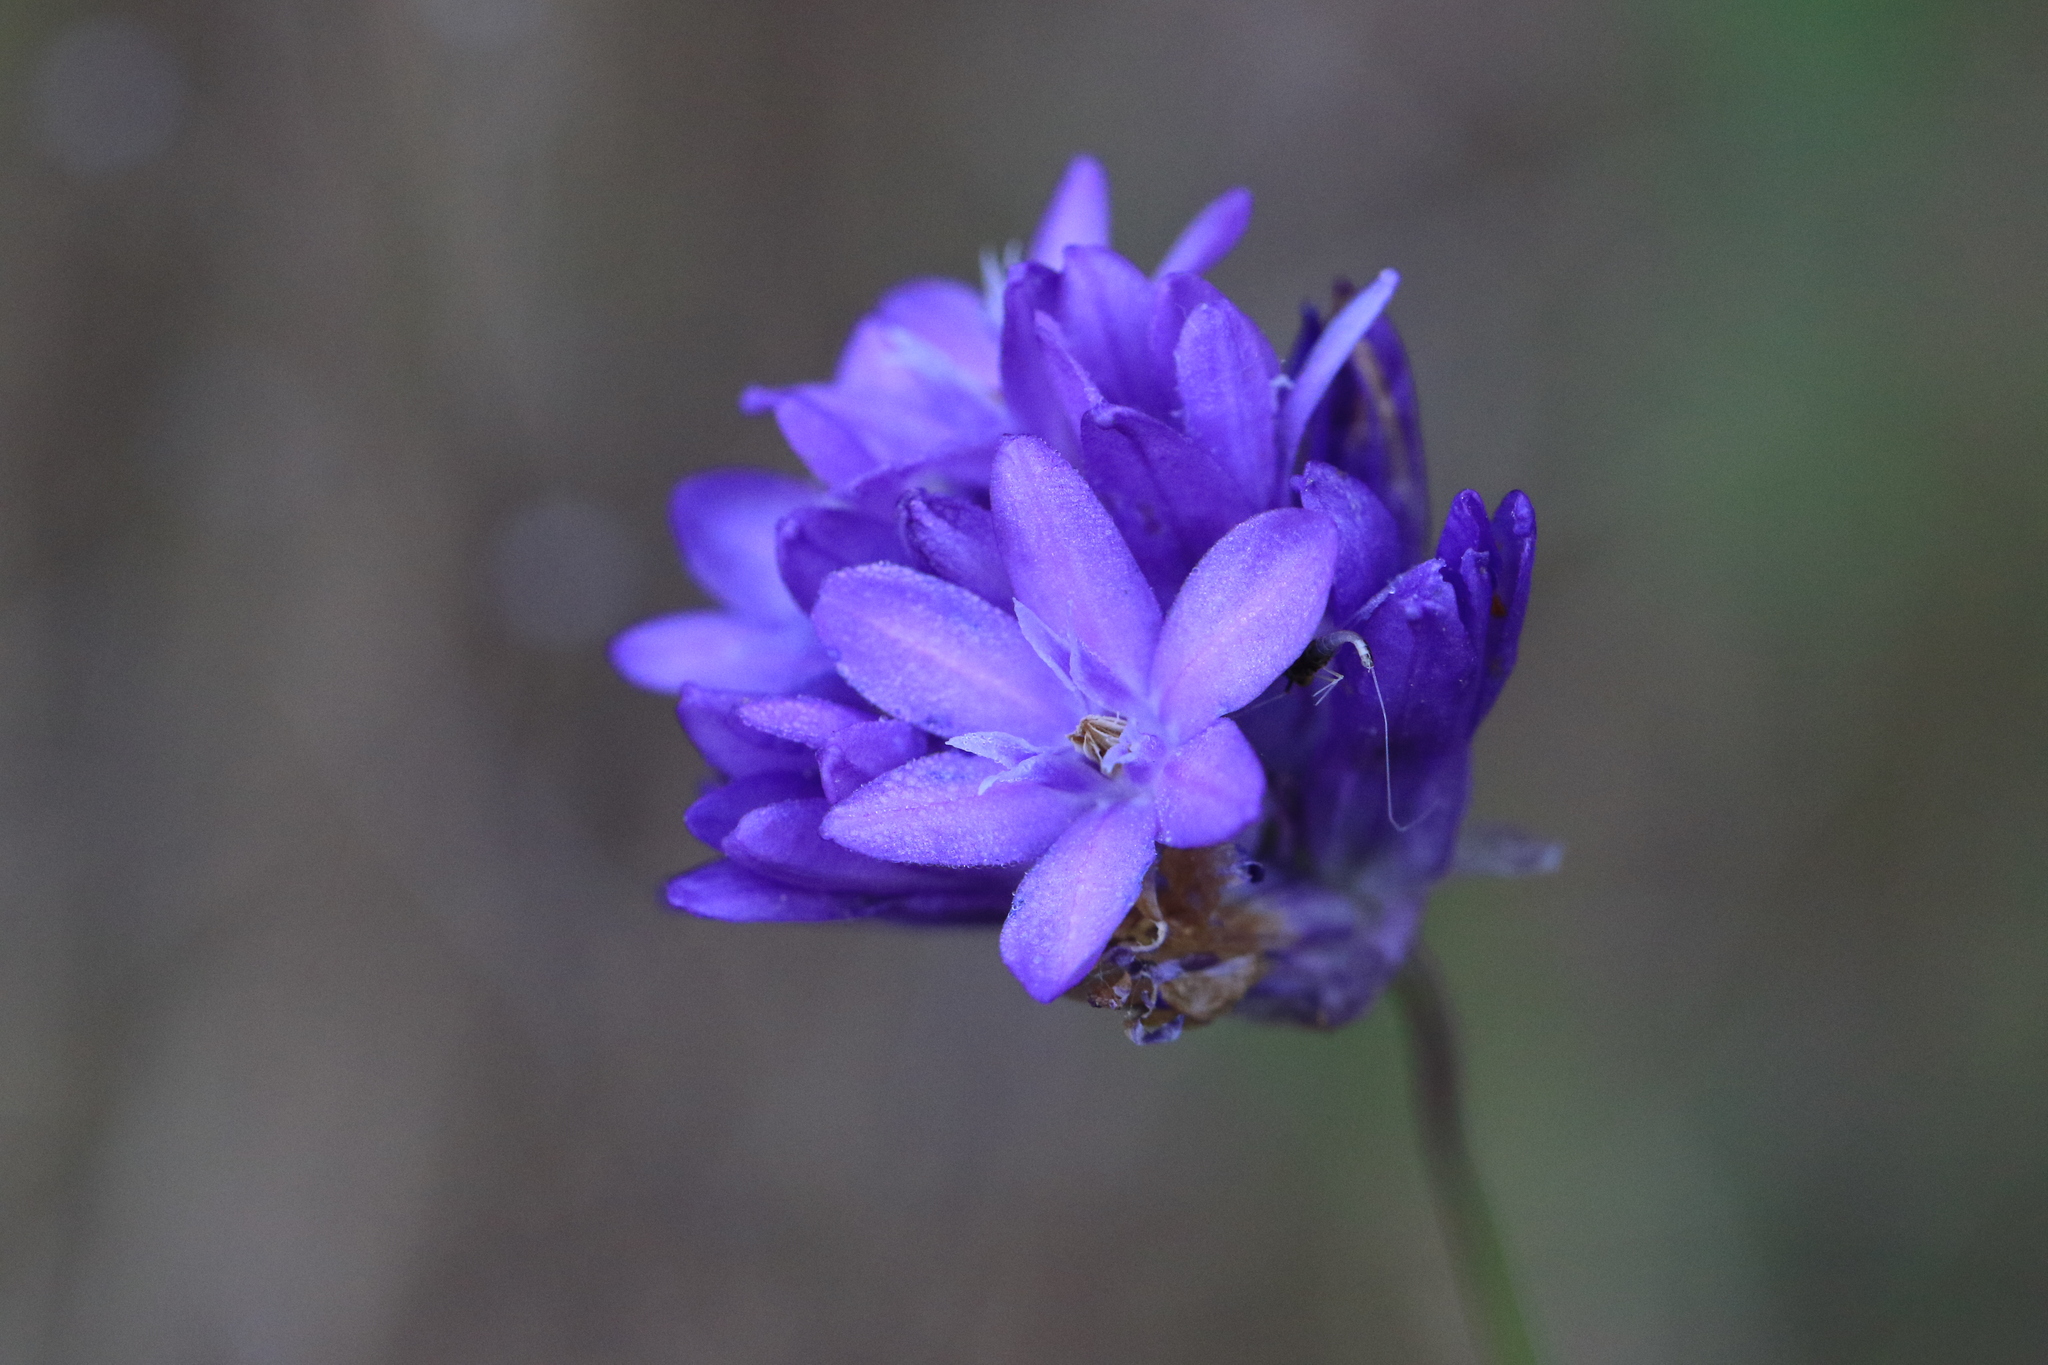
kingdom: Plantae
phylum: Tracheophyta
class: Liliopsida
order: Asparagales
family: Asparagaceae
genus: Dichelostemma
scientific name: Dichelostemma congestum
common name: Fork-tooth ookow
